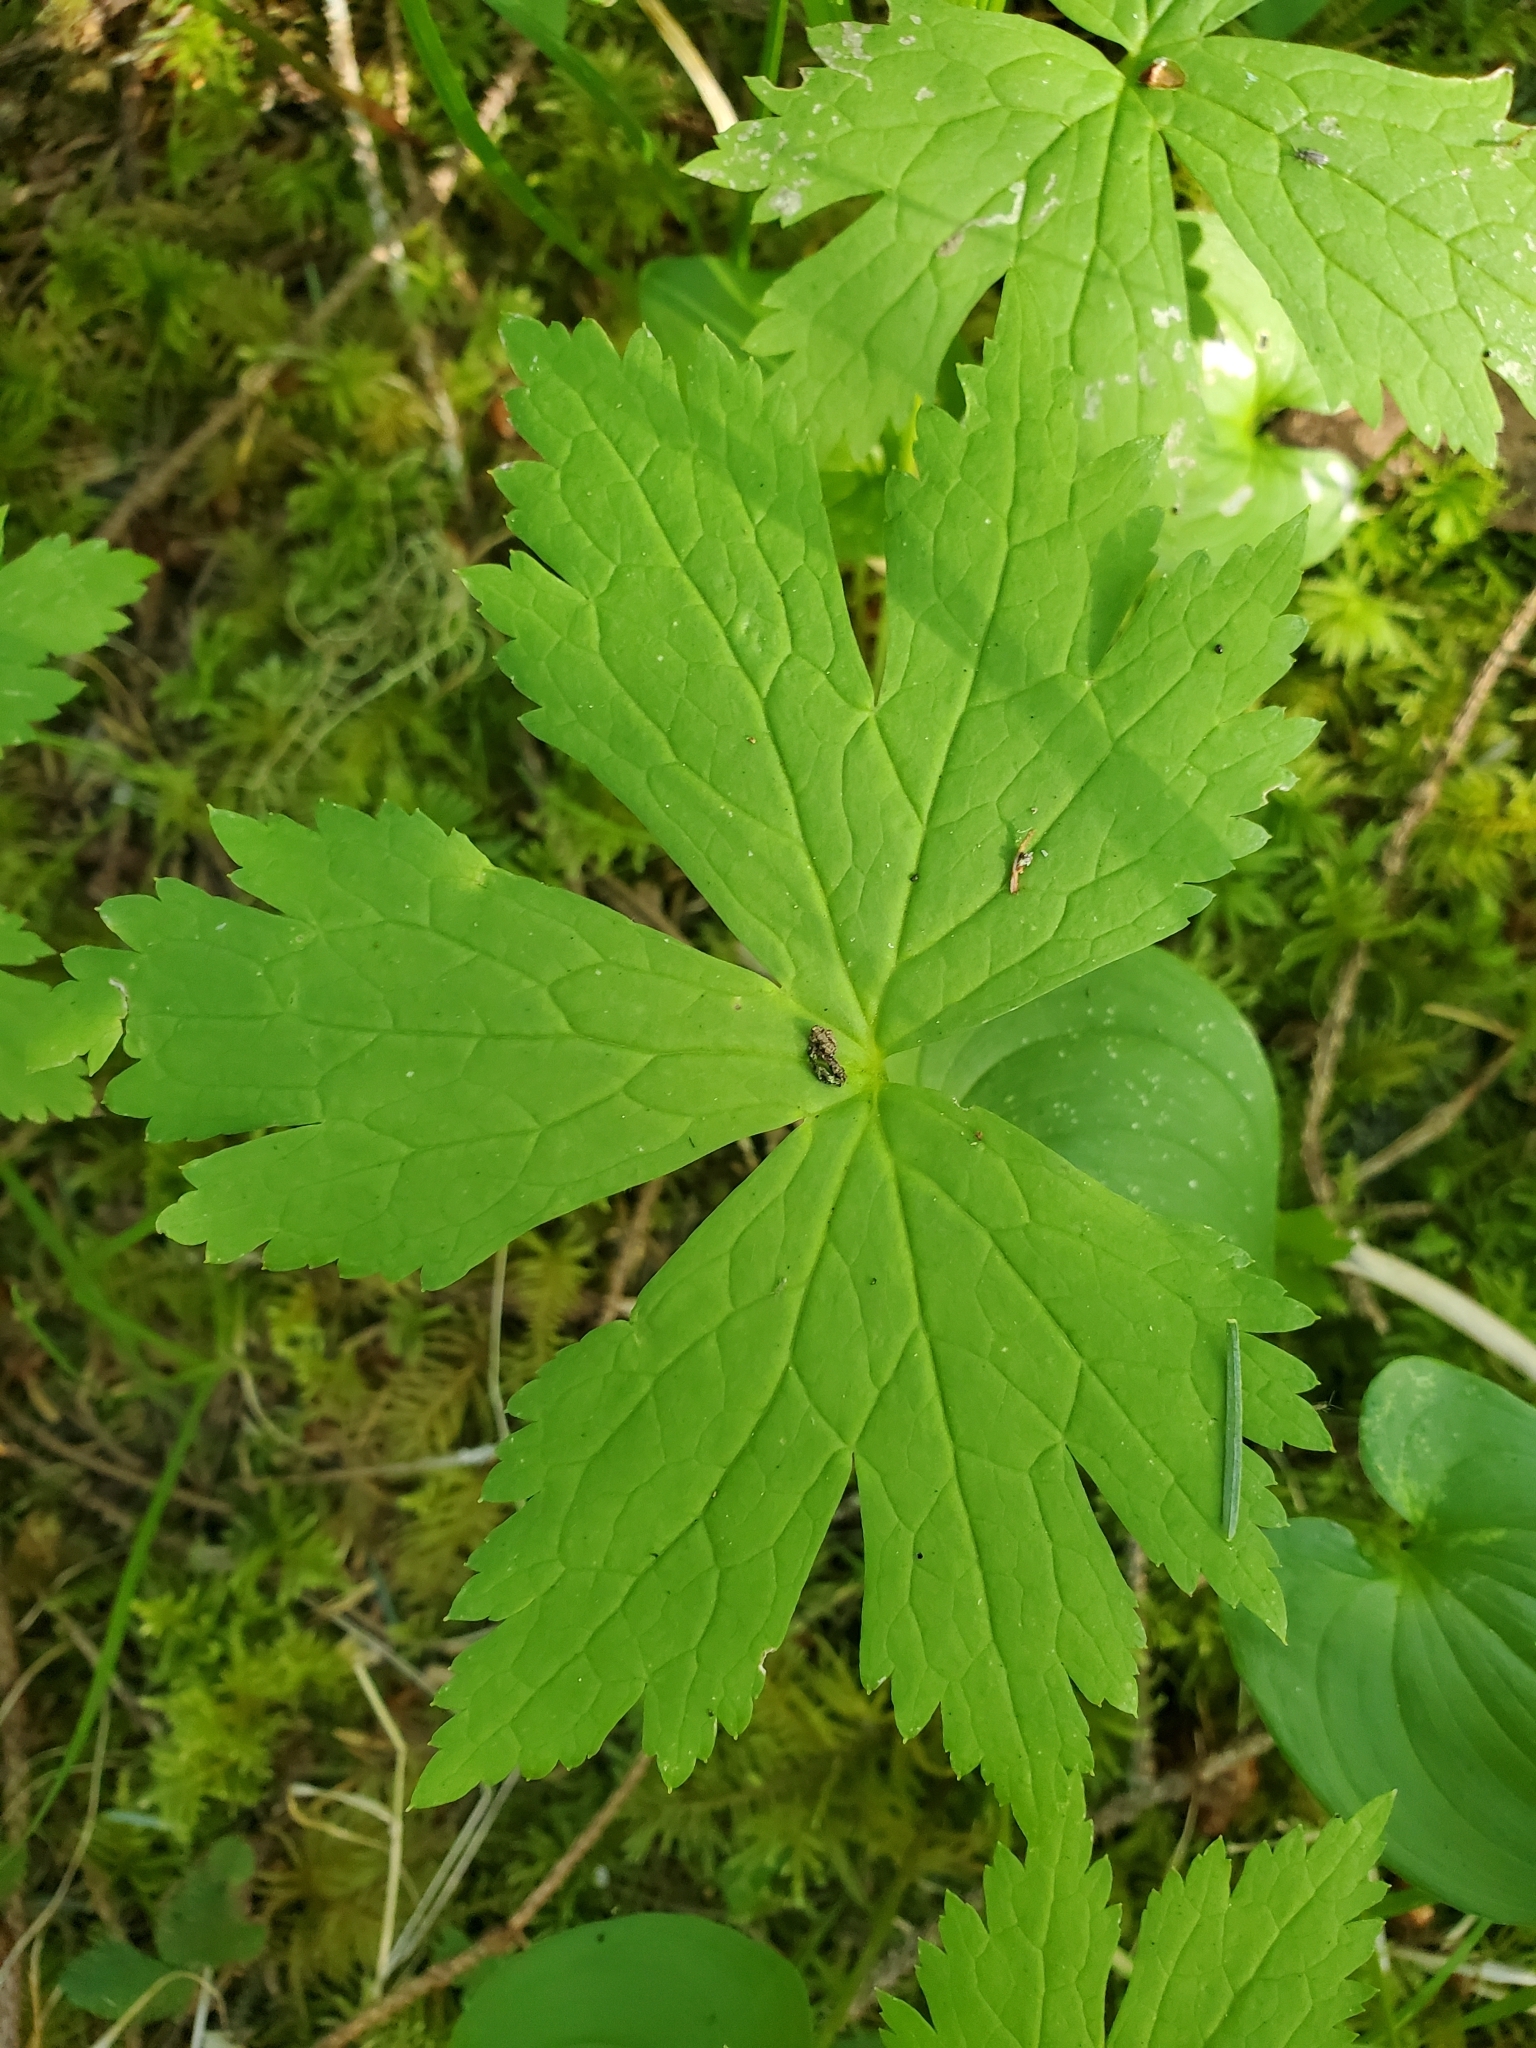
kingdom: Plantae
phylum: Tracheophyta
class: Magnoliopsida
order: Ranunculales
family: Ranunculaceae
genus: Trautvetteria
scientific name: Trautvetteria carolinensis
